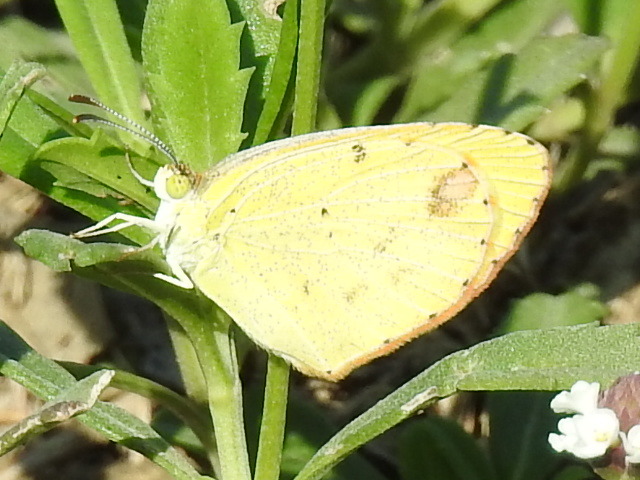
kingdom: Animalia
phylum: Arthropoda
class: Insecta
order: Lepidoptera
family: Pieridae
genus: Pyrisitia
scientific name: Pyrisitia lisa
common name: Little yellow
